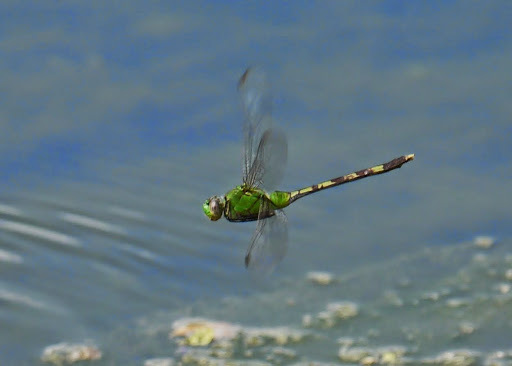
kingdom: Animalia
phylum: Arthropoda
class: Insecta
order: Odonata
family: Libellulidae
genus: Erythemis
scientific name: Erythemis vesiculosa
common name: Great pondhawk
